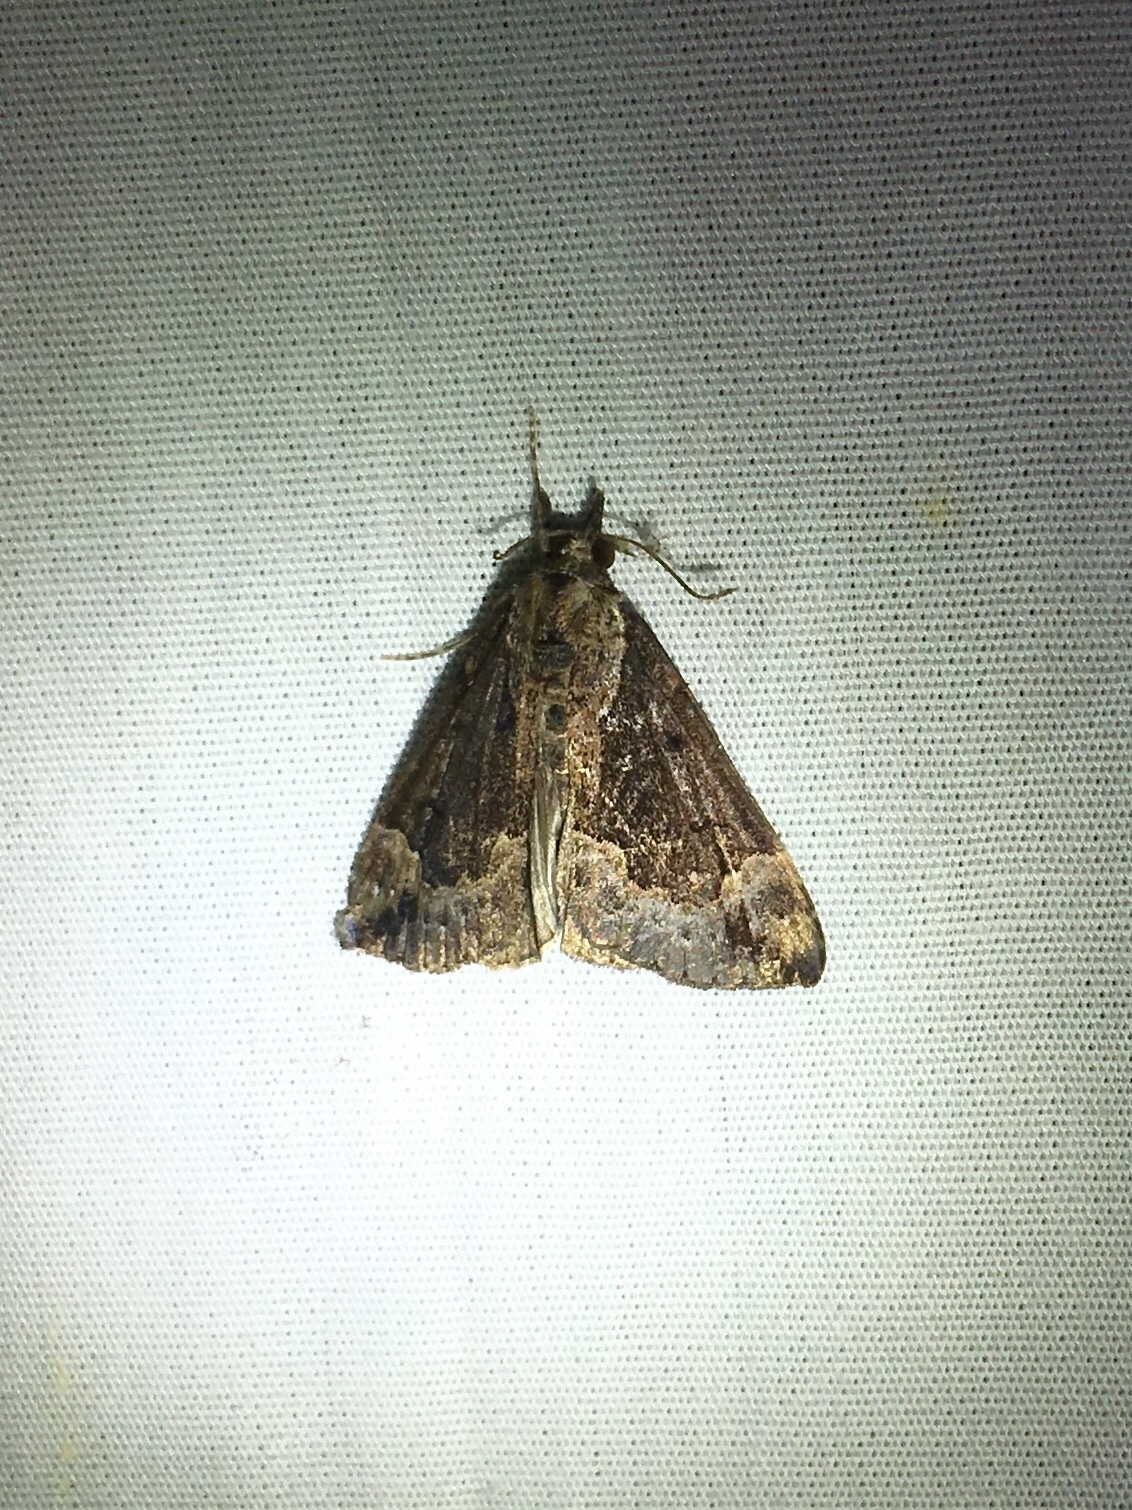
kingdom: Animalia
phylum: Arthropoda
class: Insecta
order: Lepidoptera
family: Erebidae
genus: Hypena
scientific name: Hypena baltimoralis
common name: Baltimore snout
